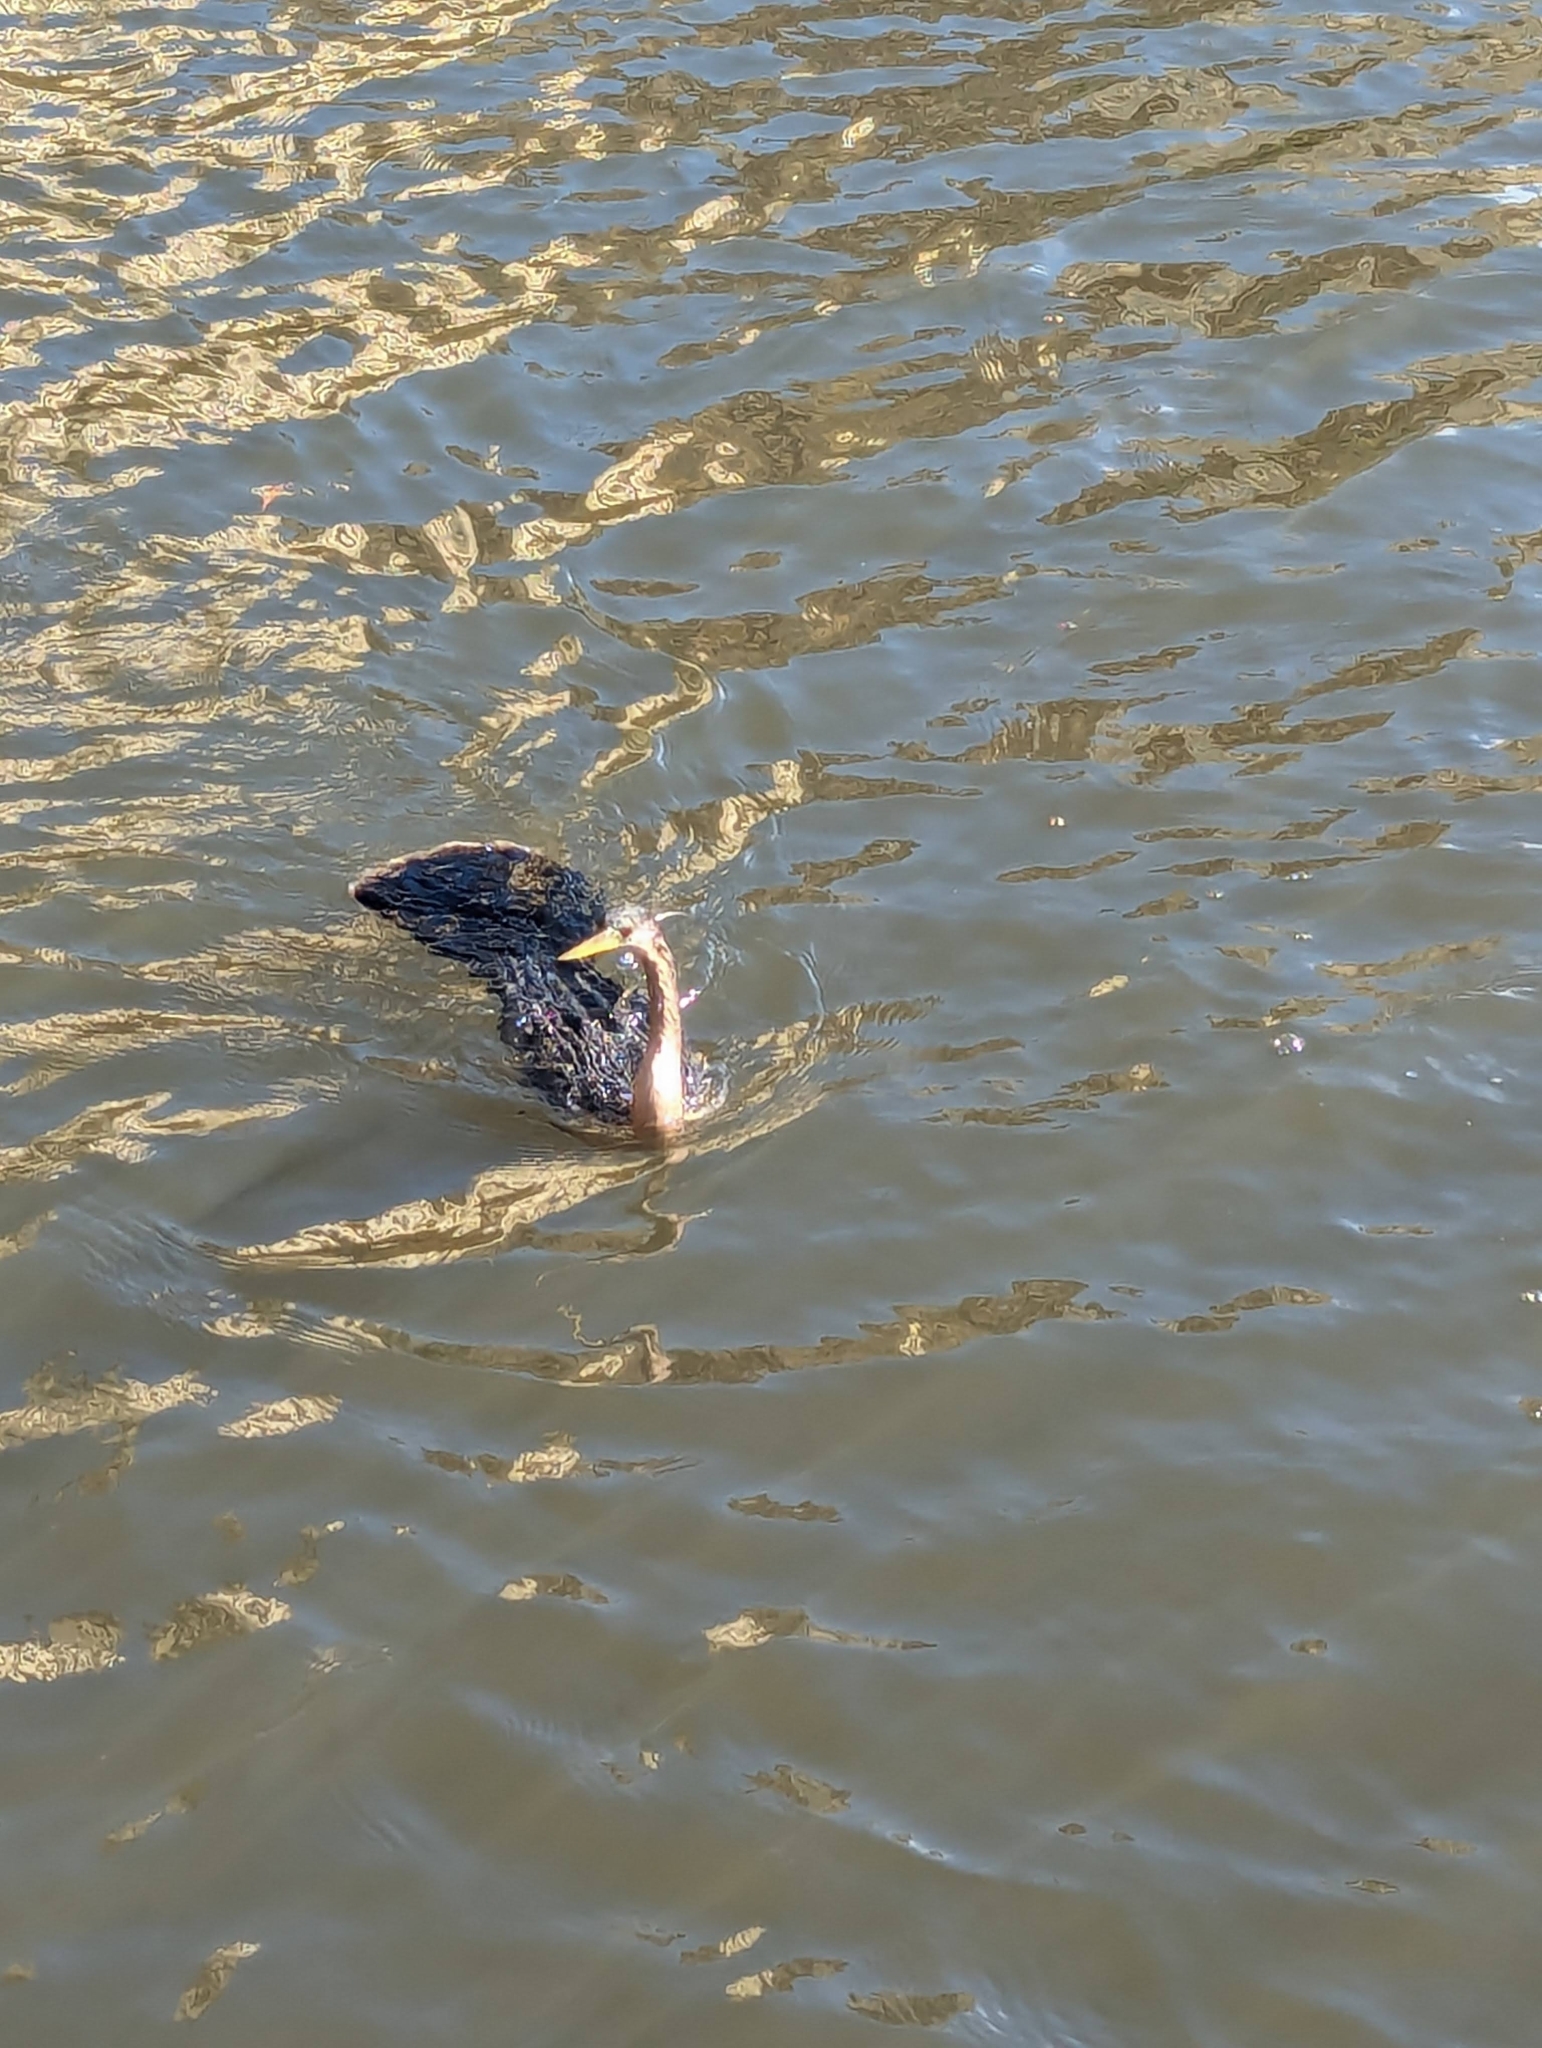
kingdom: Animalia
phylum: Chordata
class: Aves
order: Suliformes
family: Anhingidae
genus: Anhinga
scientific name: Anhinga anhinga
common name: Anhinga
